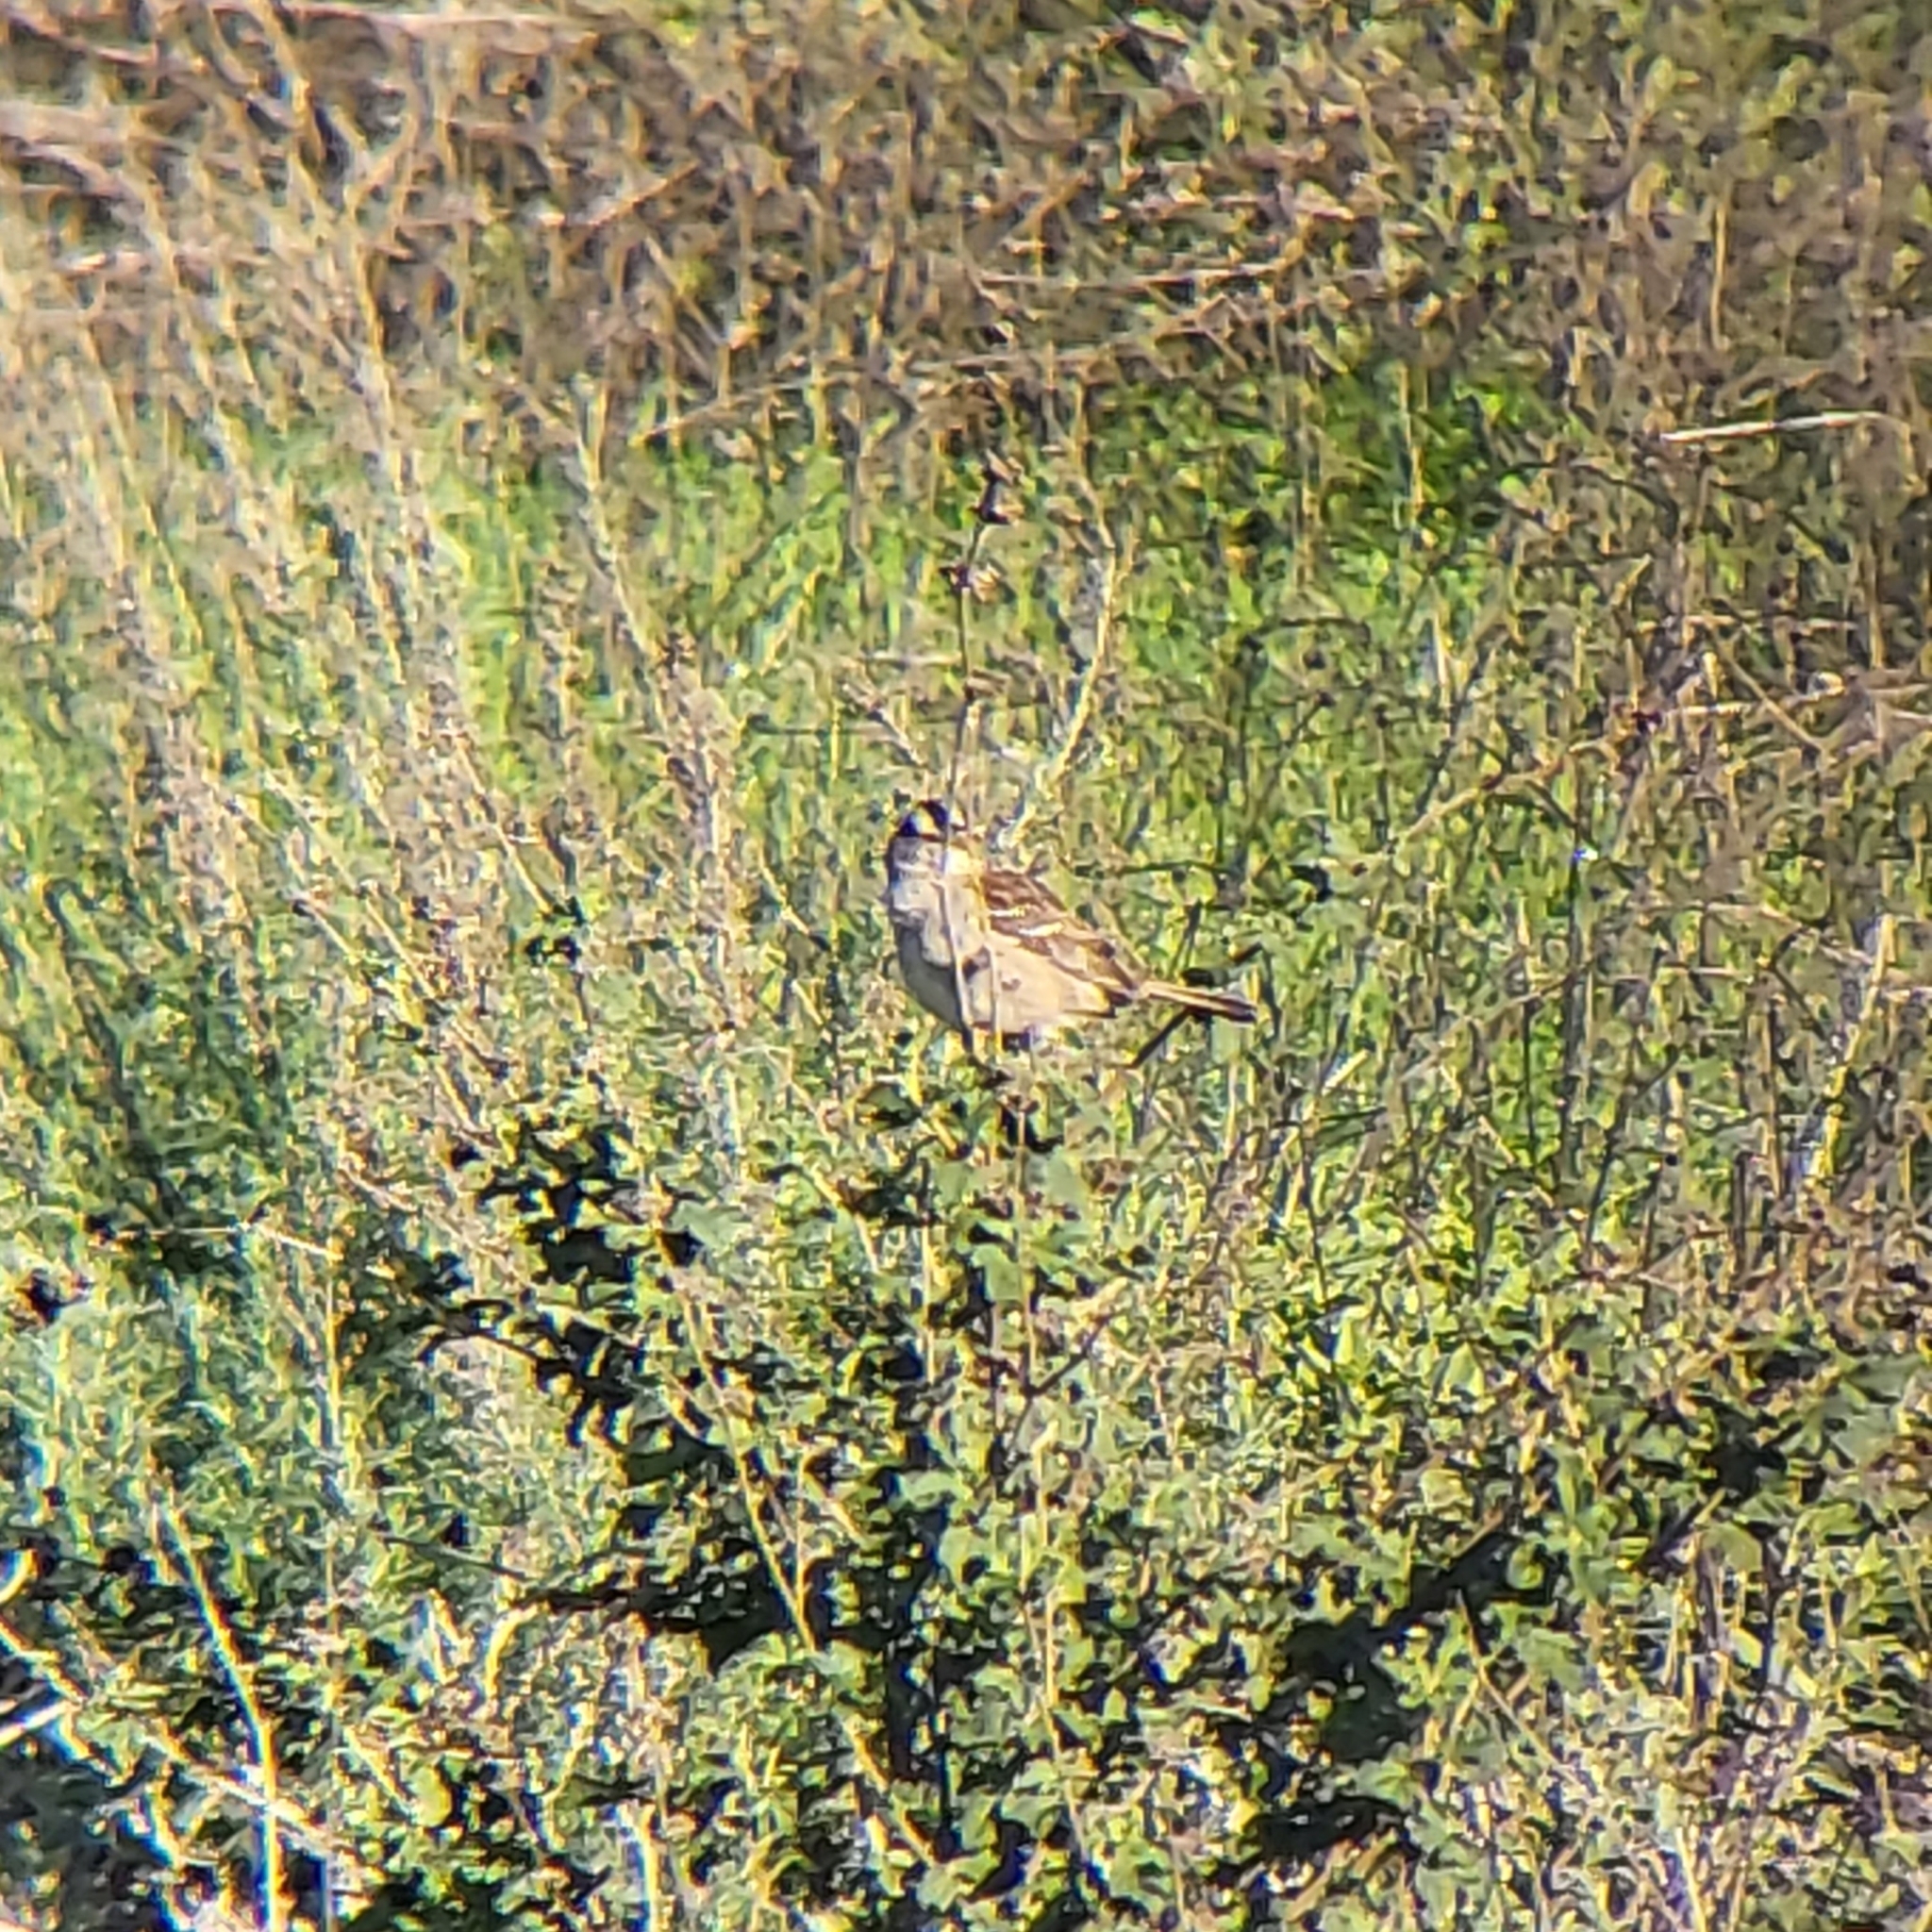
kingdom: Animalia
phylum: Chordata
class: Aves
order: Passeriformes
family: Passerellidae
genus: Zonotrichia
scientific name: Zonotrichia leucophrys
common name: White-crowned sparrow
